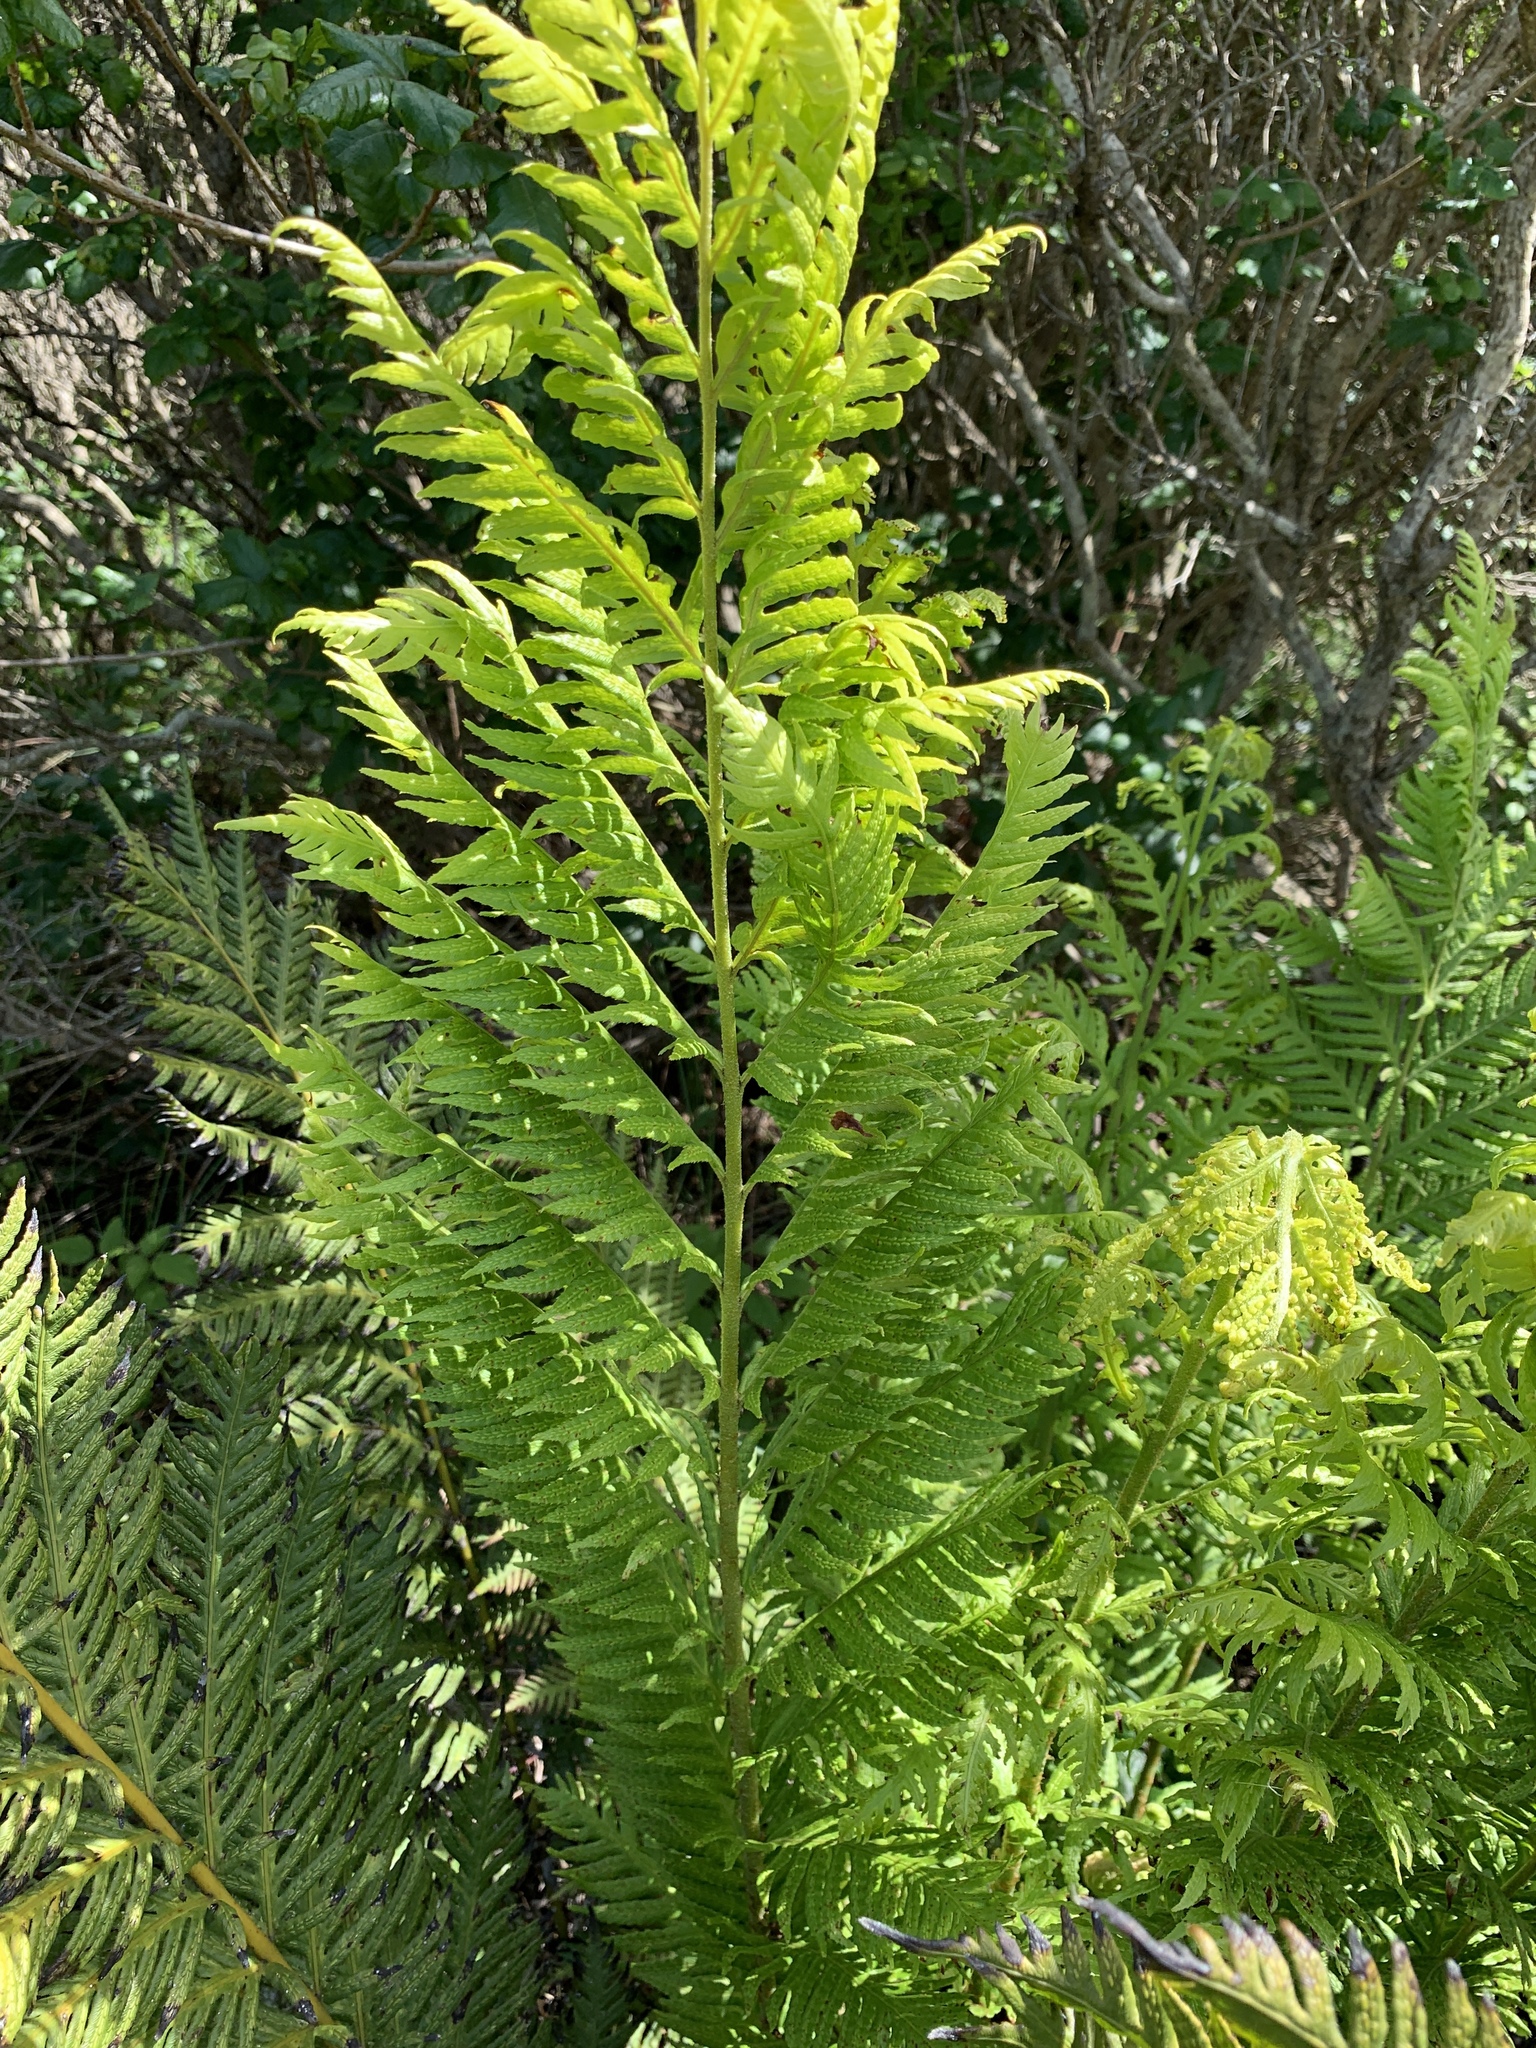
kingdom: Plantae
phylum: Tracheophyta
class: Polypodiopsida
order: Polypodiales
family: Blechnaceae
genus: Woodwardia
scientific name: Woodwardia fimbriata
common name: Giant chain fern
